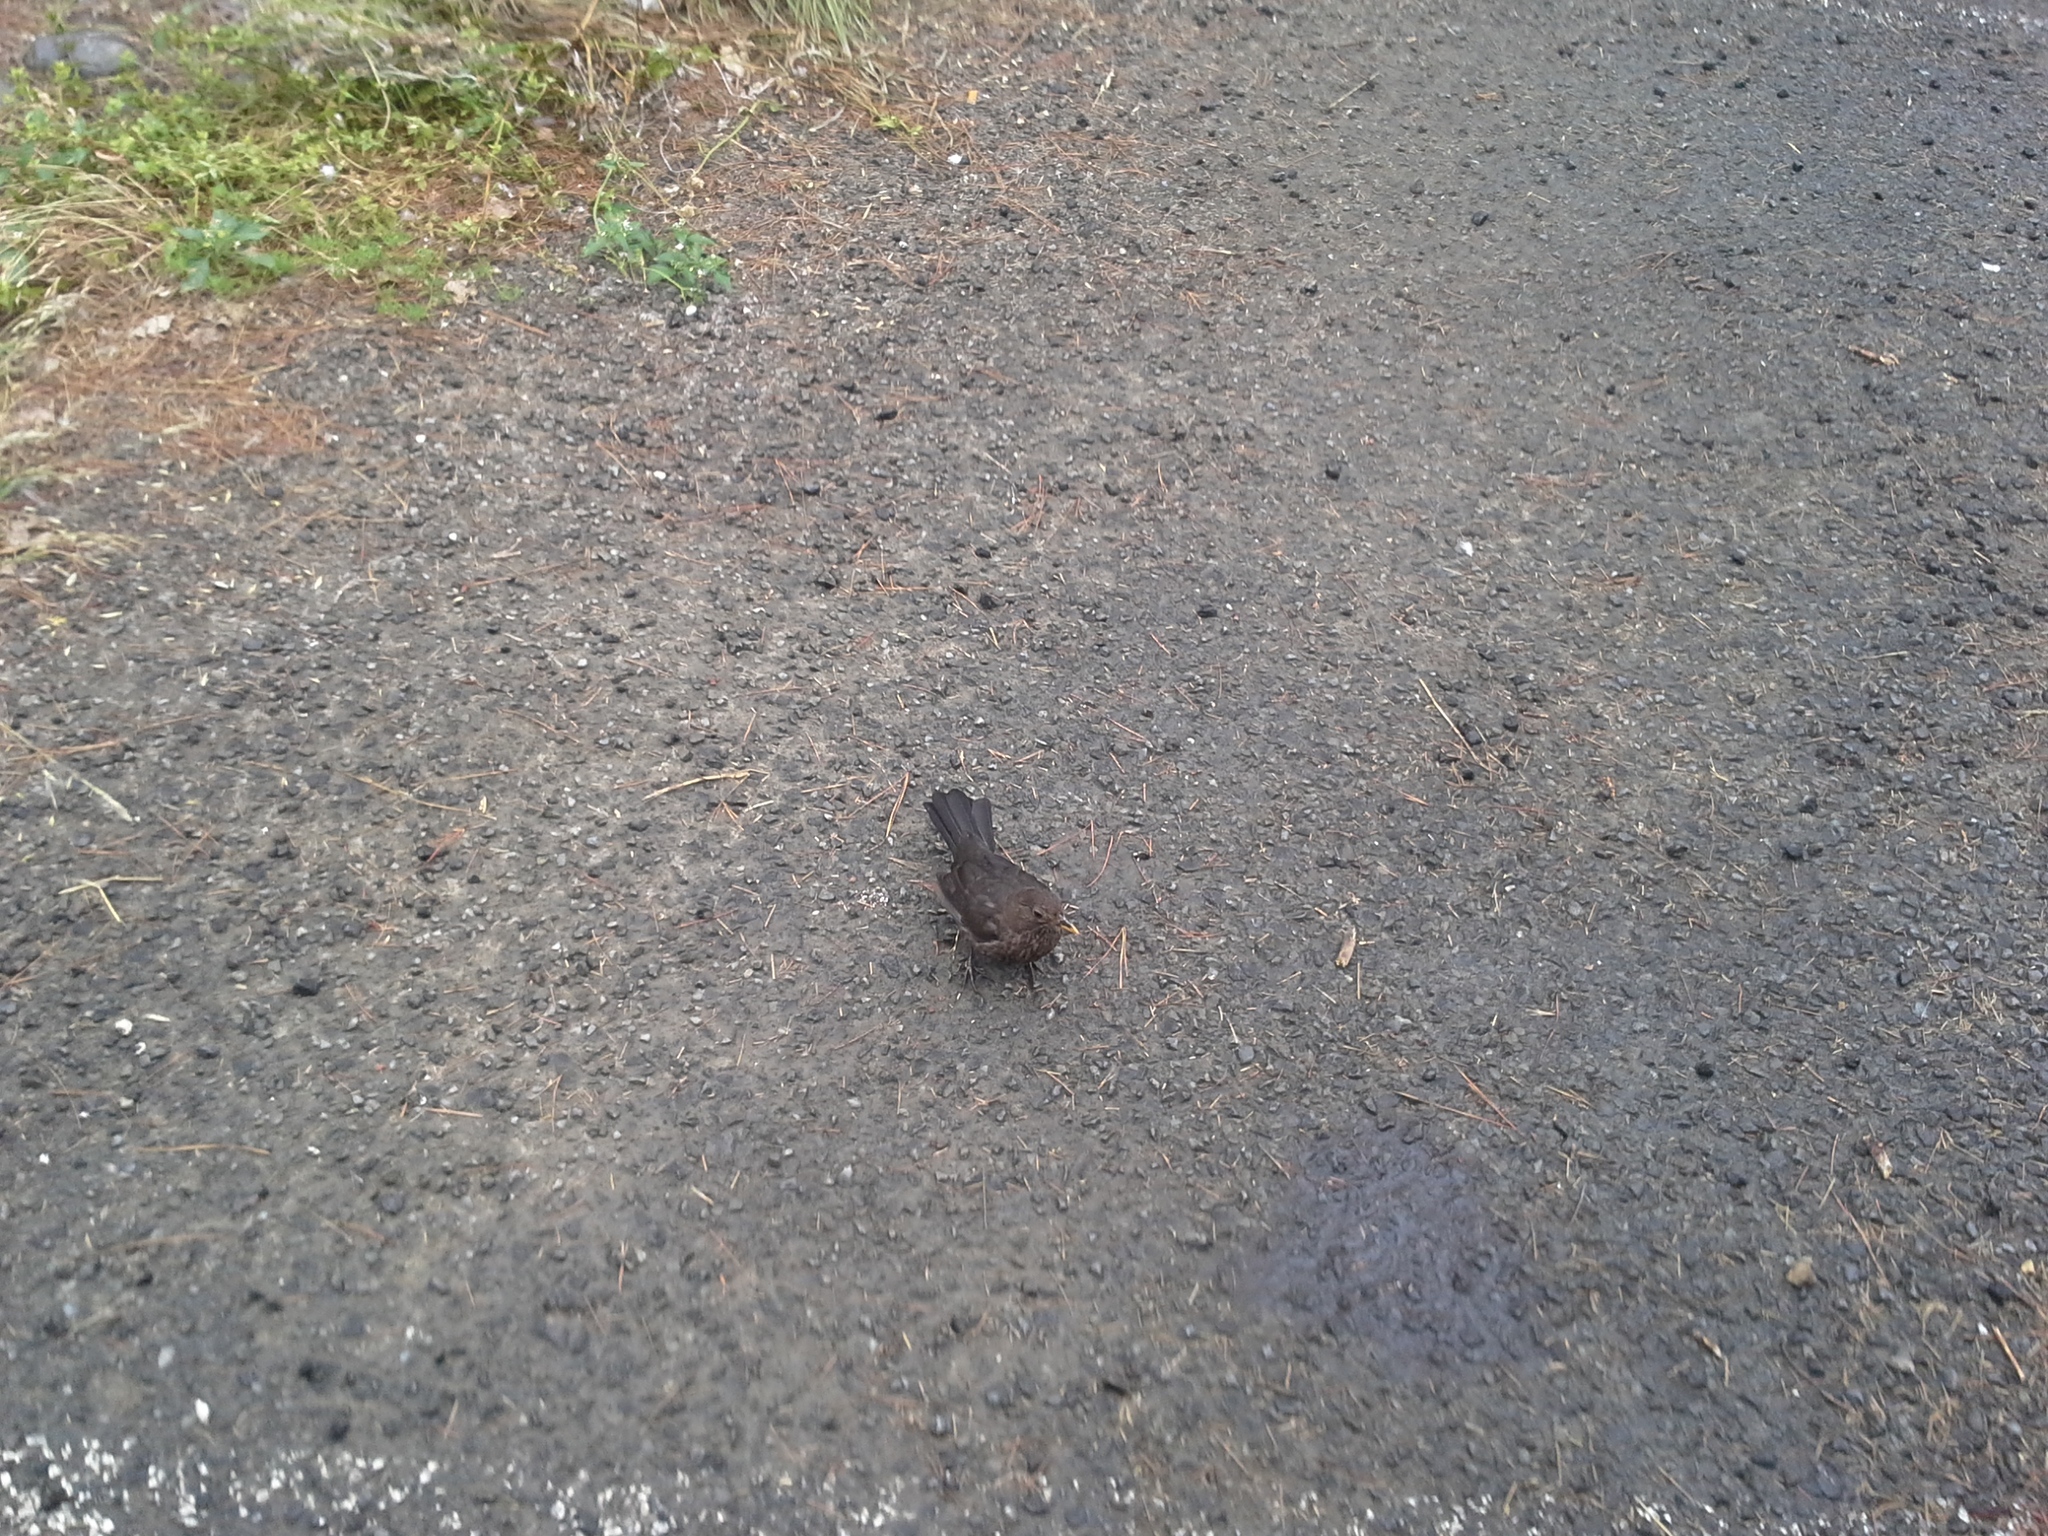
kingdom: Animalia
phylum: Chordata
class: Aves
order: Passeriformes
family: Turdidae
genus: Turdus
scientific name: Turdus merula
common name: Common blackbird
